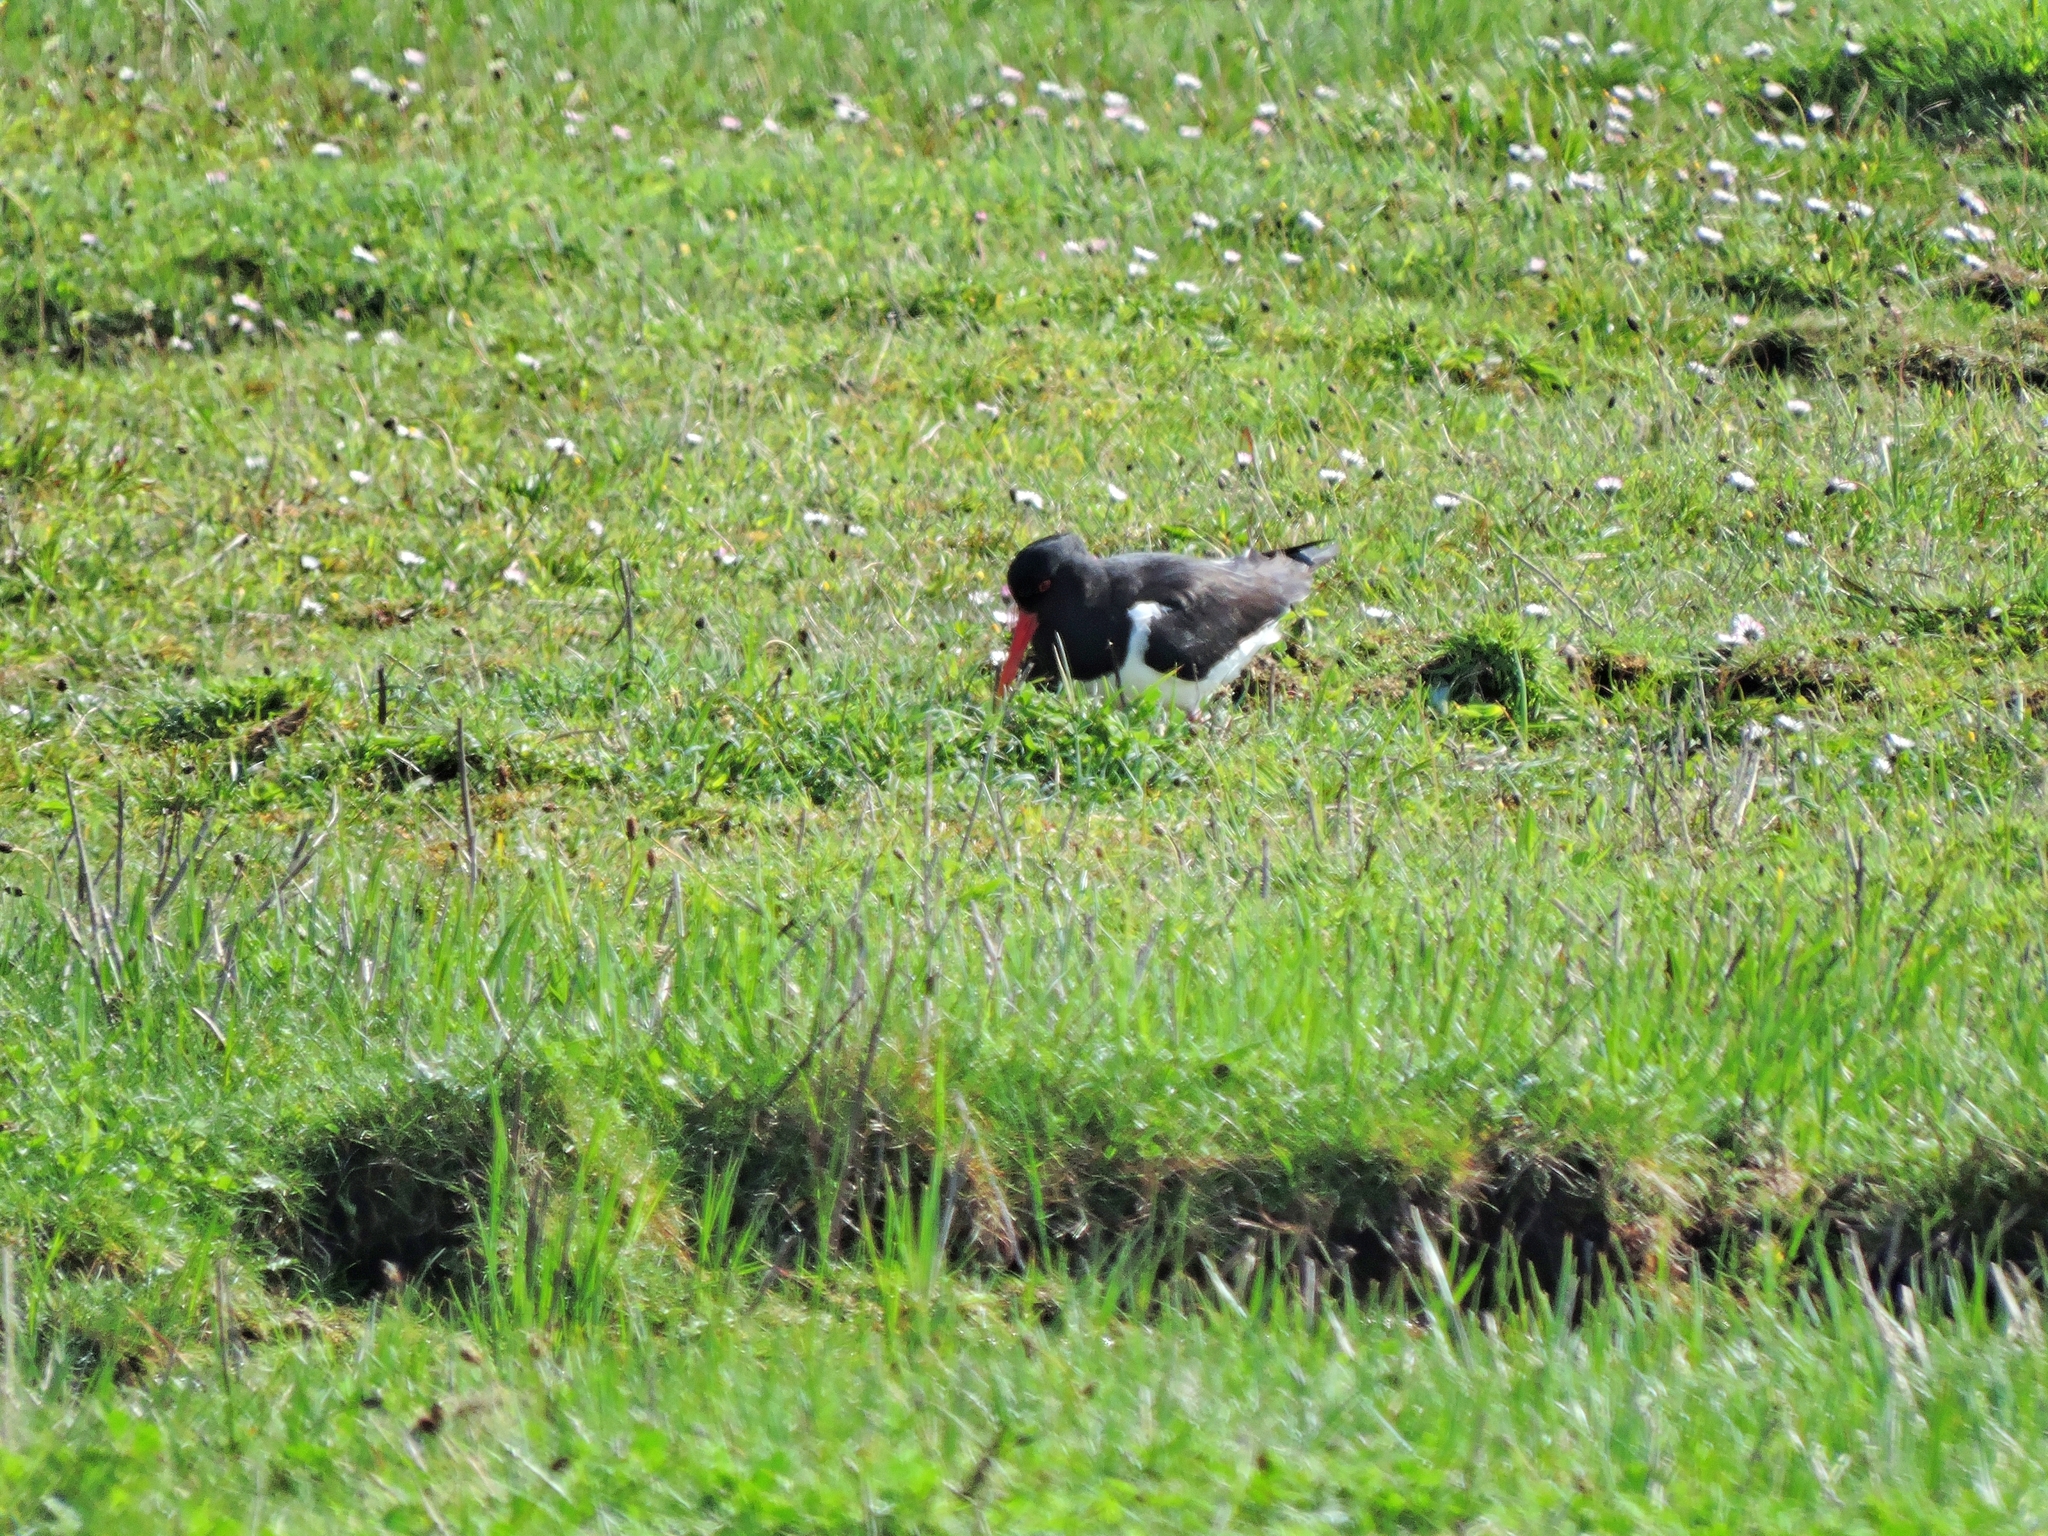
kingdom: Animalia
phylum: Chordata
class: Aves
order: Charadriiformes
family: Haematopodidae
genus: Haematopus
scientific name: Haematopus ostralegus
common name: Eurasian oystercatcher
